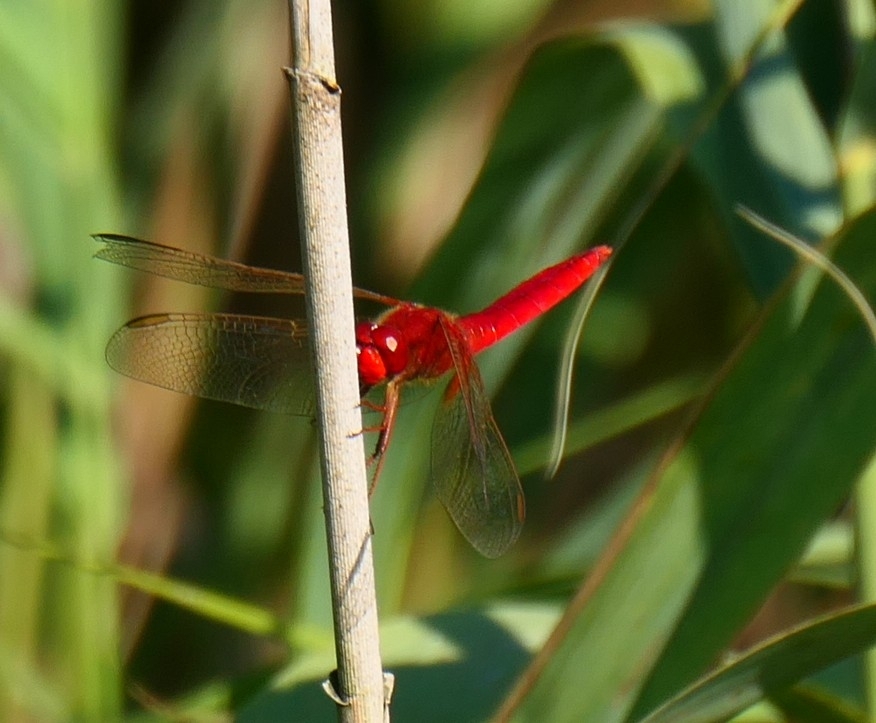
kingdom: Animalia
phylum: Arthropoda
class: Insecta
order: Odonata
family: Libellulidae
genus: Crocothemis
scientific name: Crocothemis erythraea
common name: Scarlet dragonfly
